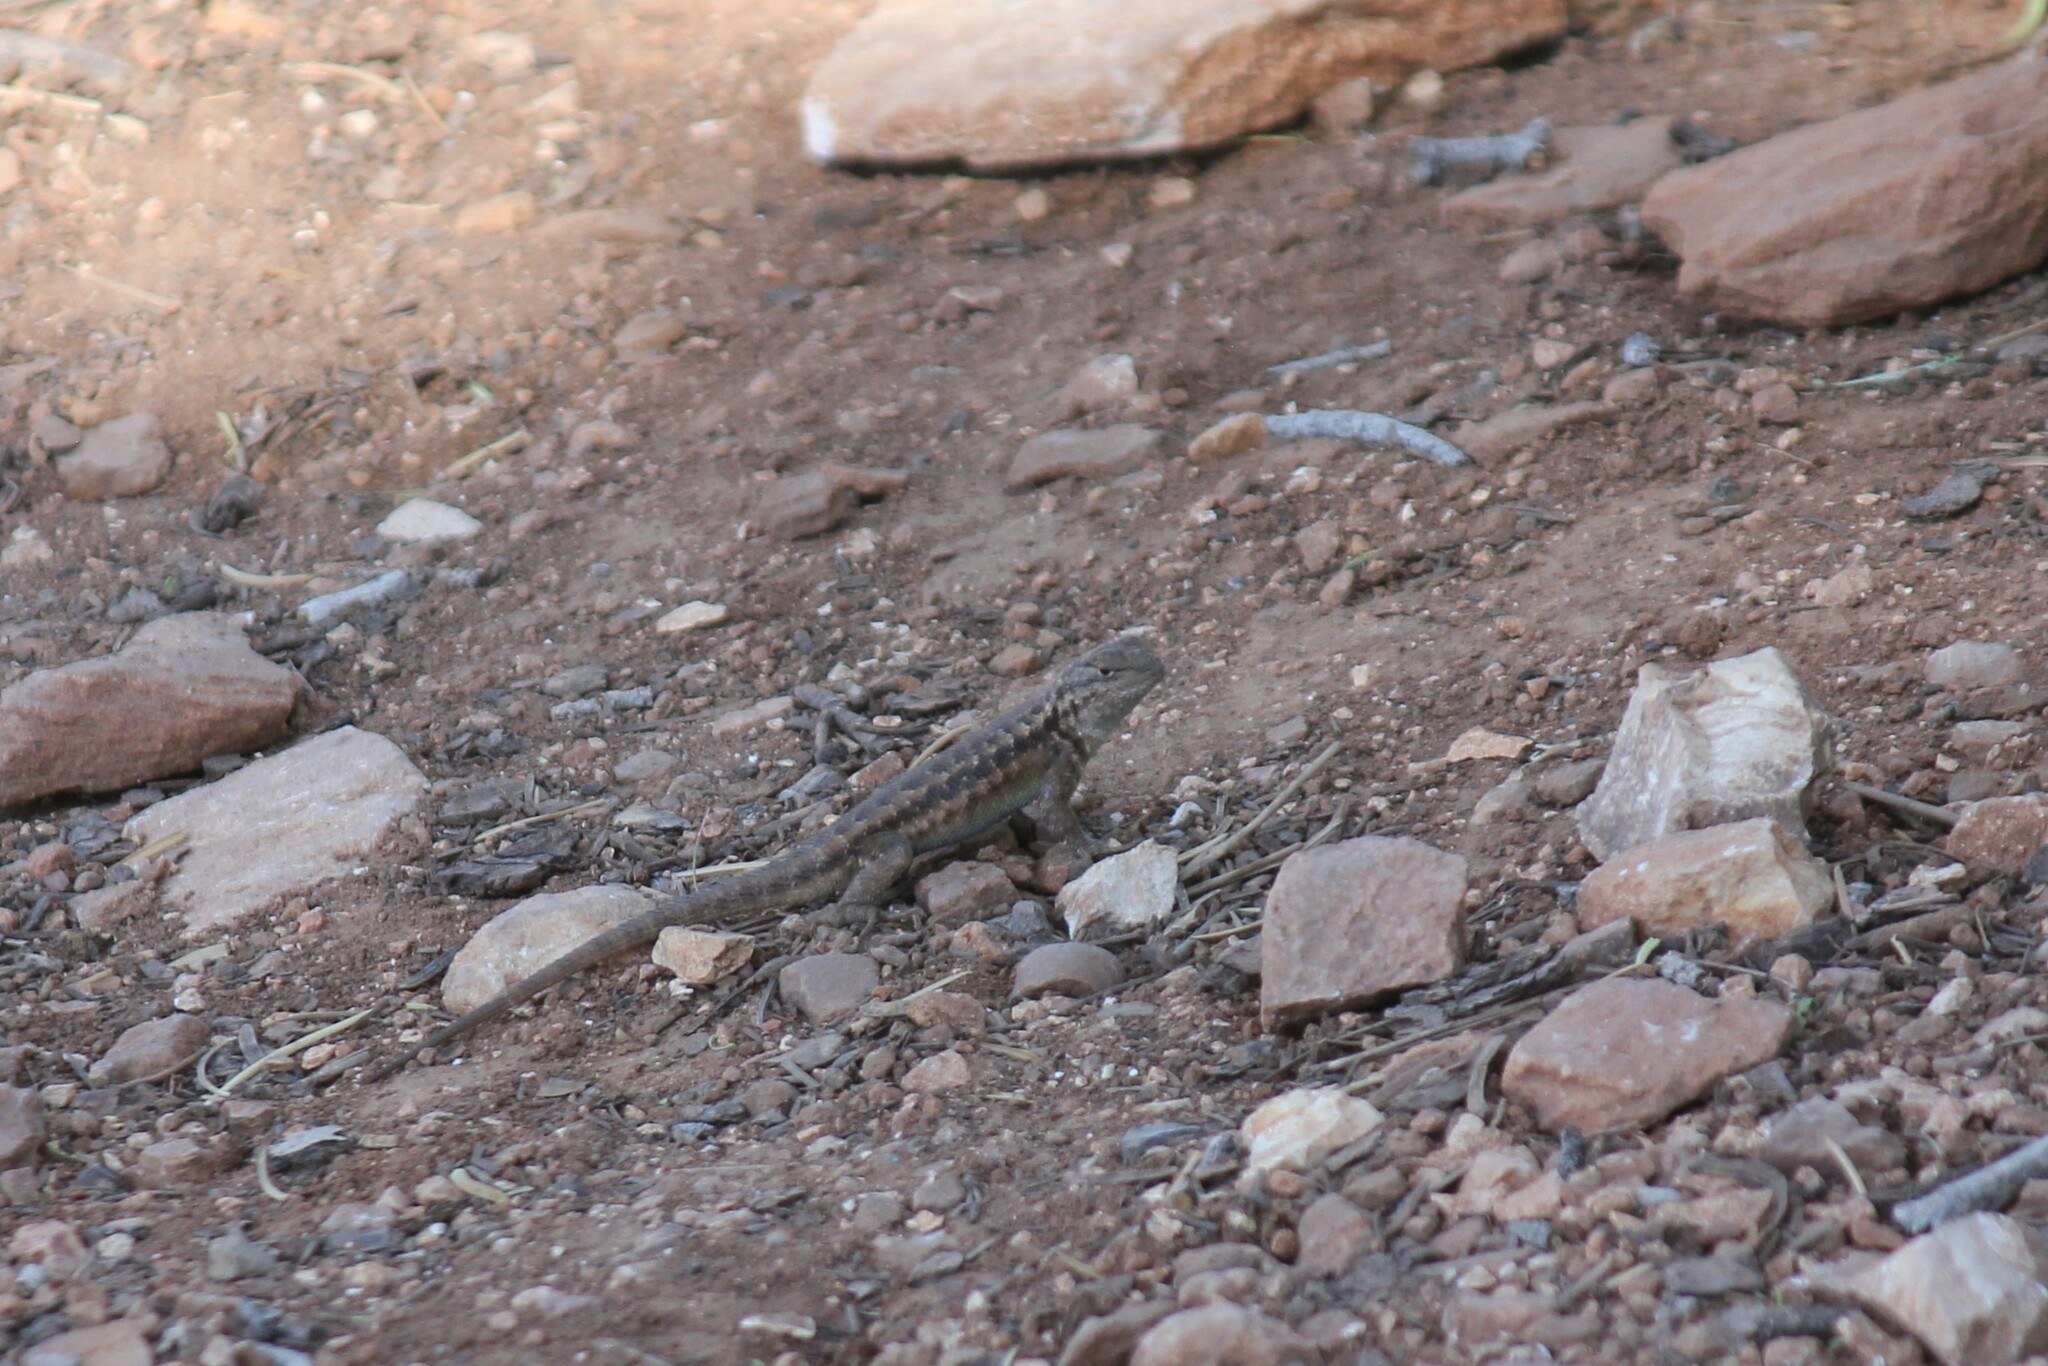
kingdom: Animalia
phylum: Chordata
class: Squamata
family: Phrynosomatidae
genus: Sceloporus
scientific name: Sceloporus graciosus
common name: Sagebrush lizard
